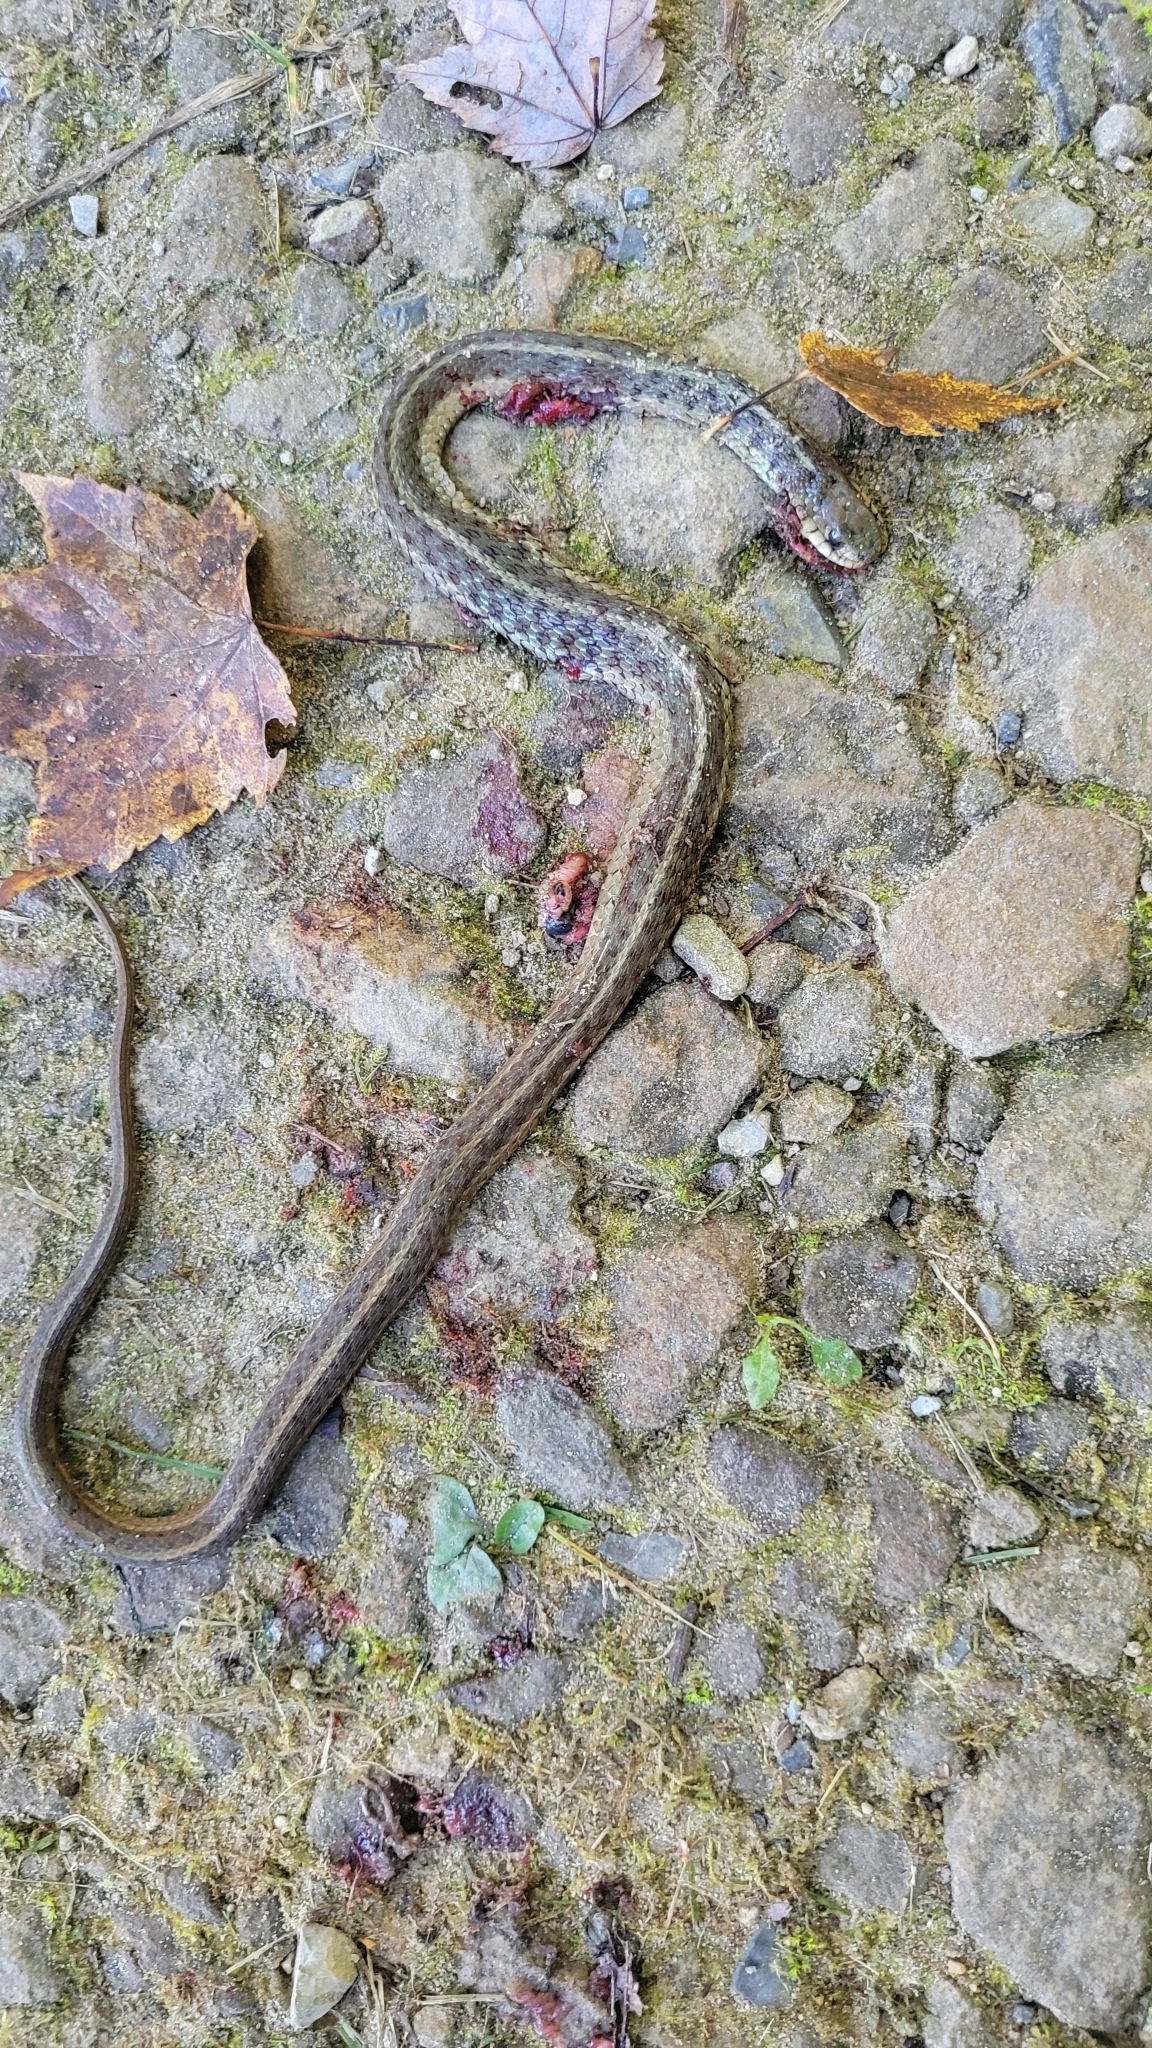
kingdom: Animalia
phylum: Chordata
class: Squamata
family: Colubridae
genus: Thamnophis
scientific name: Thamnophis sirtalis
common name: Common garter snake
